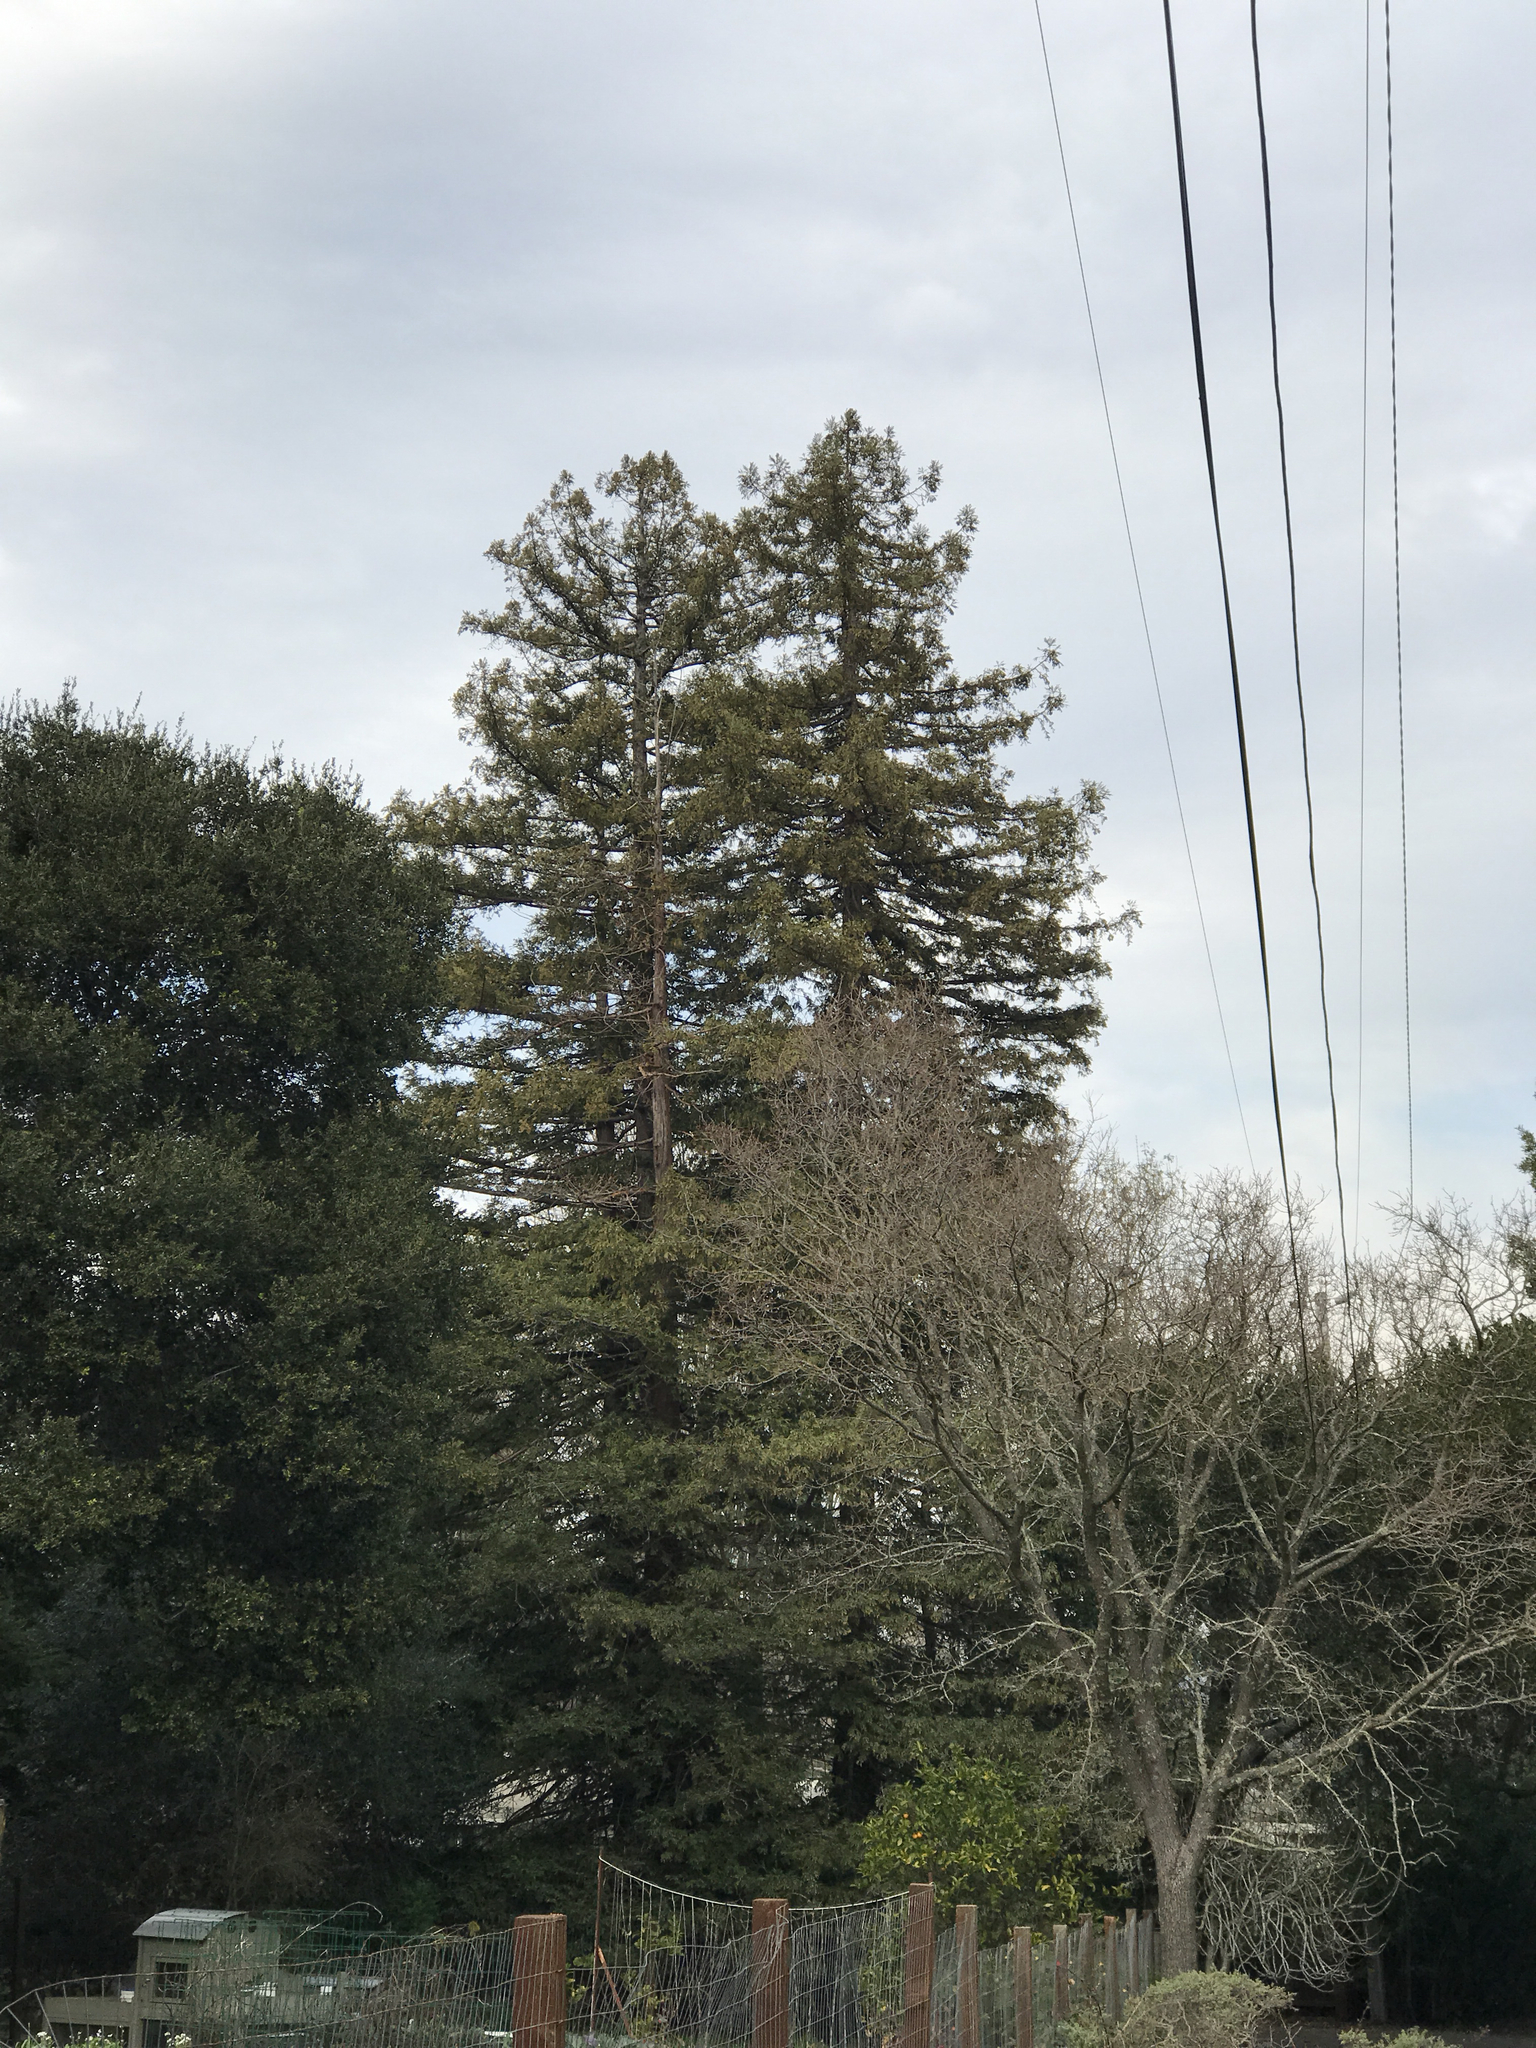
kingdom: Plantae
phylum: Tracheophyta
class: Pinopsida
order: Pinales
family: Cupressaceae
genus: Sequoia
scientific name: Sequoia sempervirens
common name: Coast redwood
